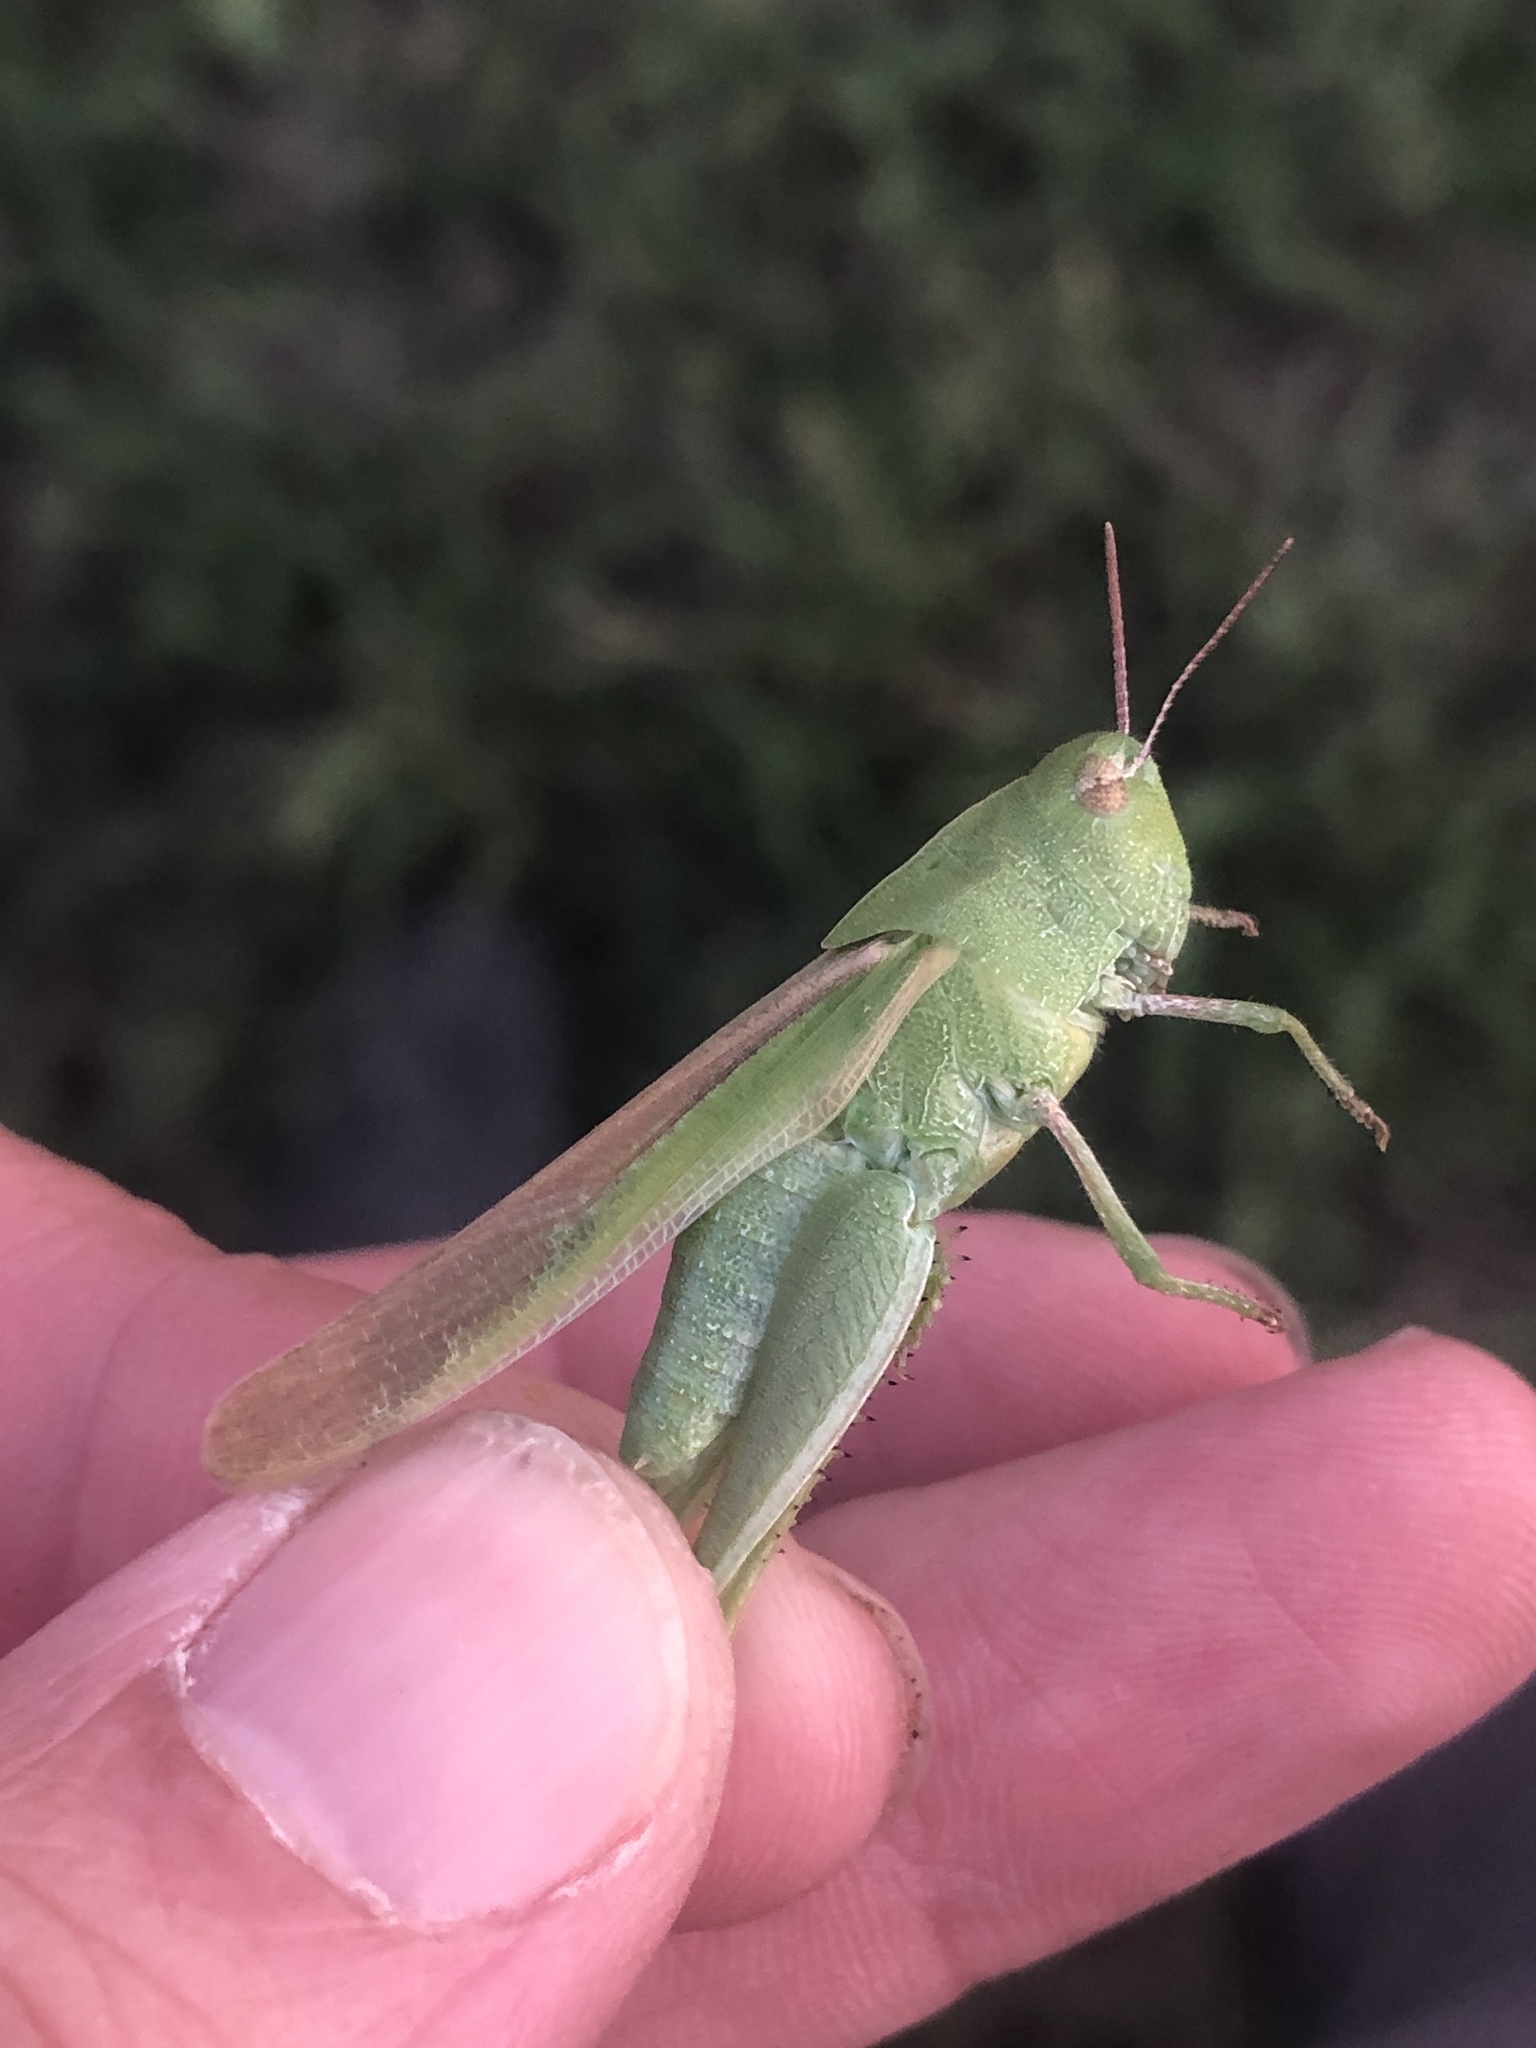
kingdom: Animalia
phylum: Arthropoda
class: Insecta
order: Orthoptera
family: Acrididae
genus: Chortophaga
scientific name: Chortophaga viridifasciata
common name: Green-striped grasshopper
